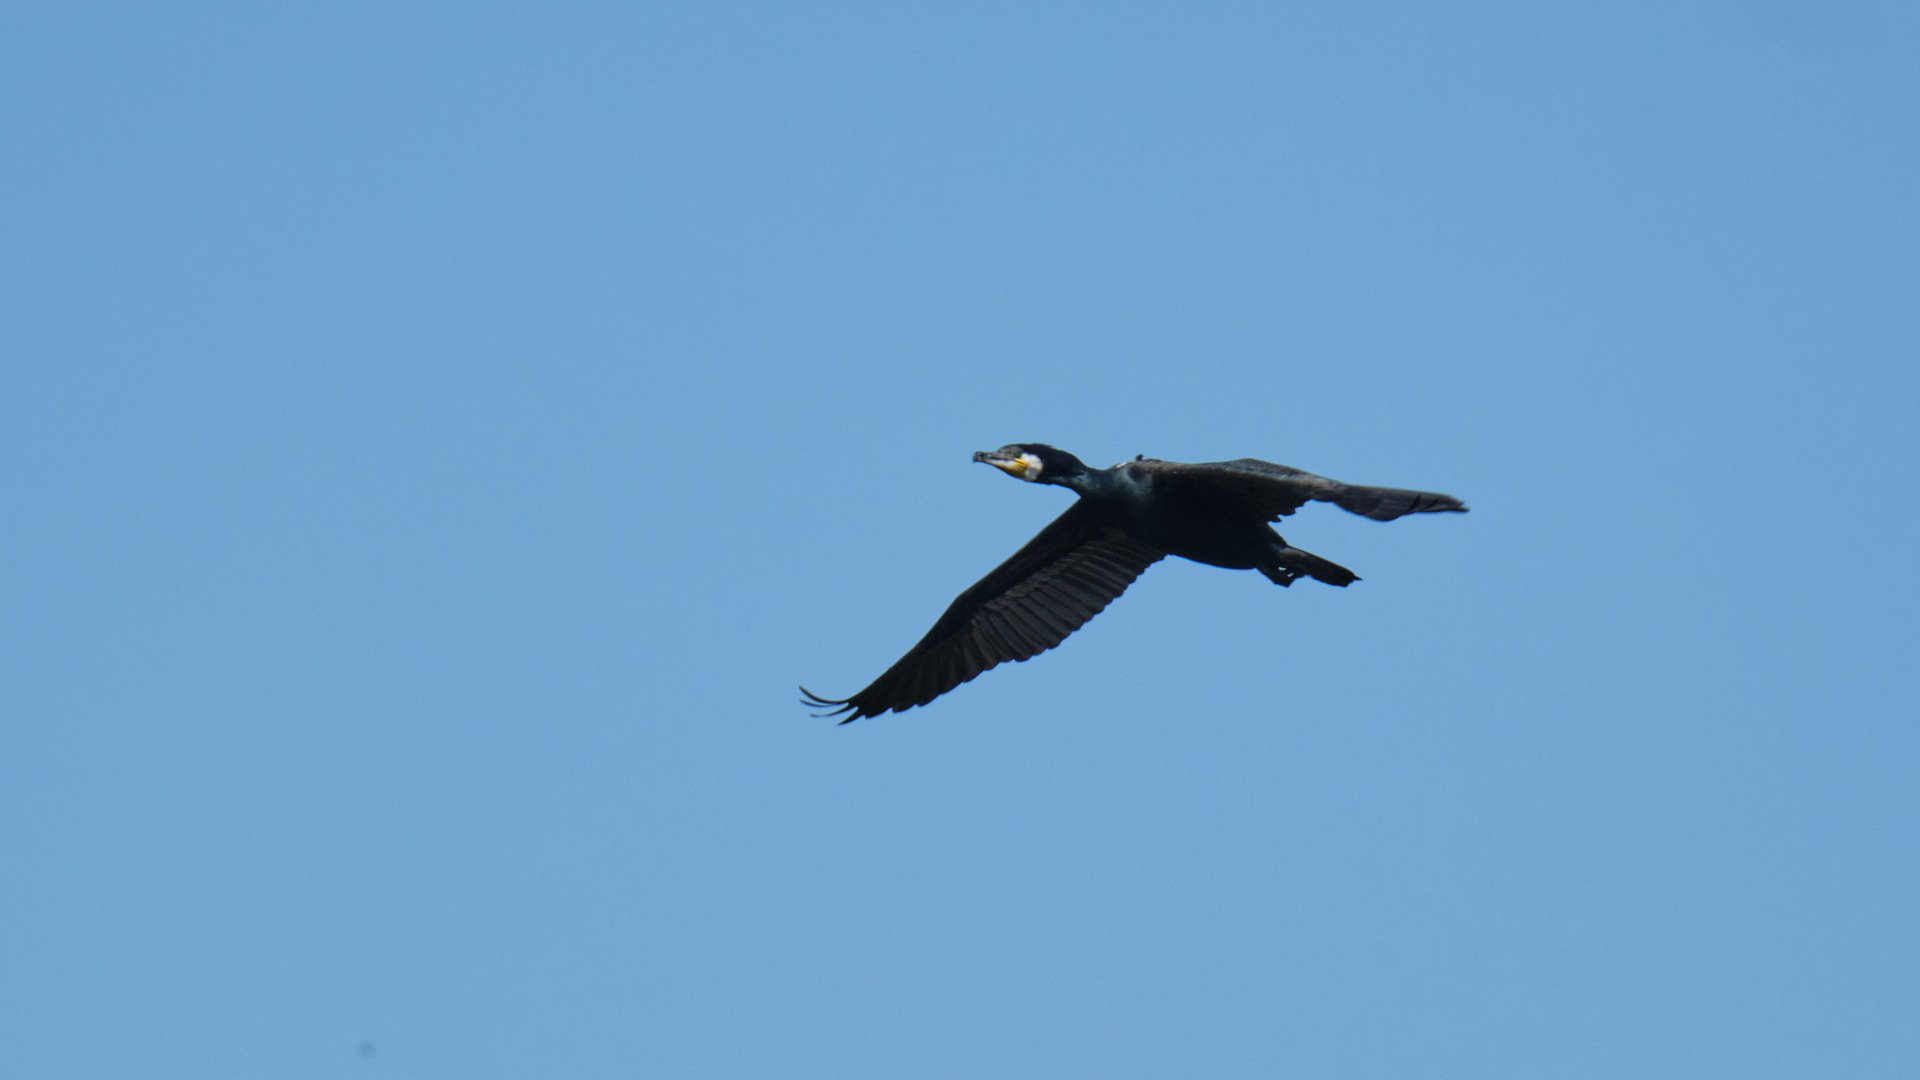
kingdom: Animalia
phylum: Chordata
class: Aves
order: Suliformes
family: Phalacrocoracidae
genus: Phalacrocorax
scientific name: Phalacrocorax carbo
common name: Great cormorant
